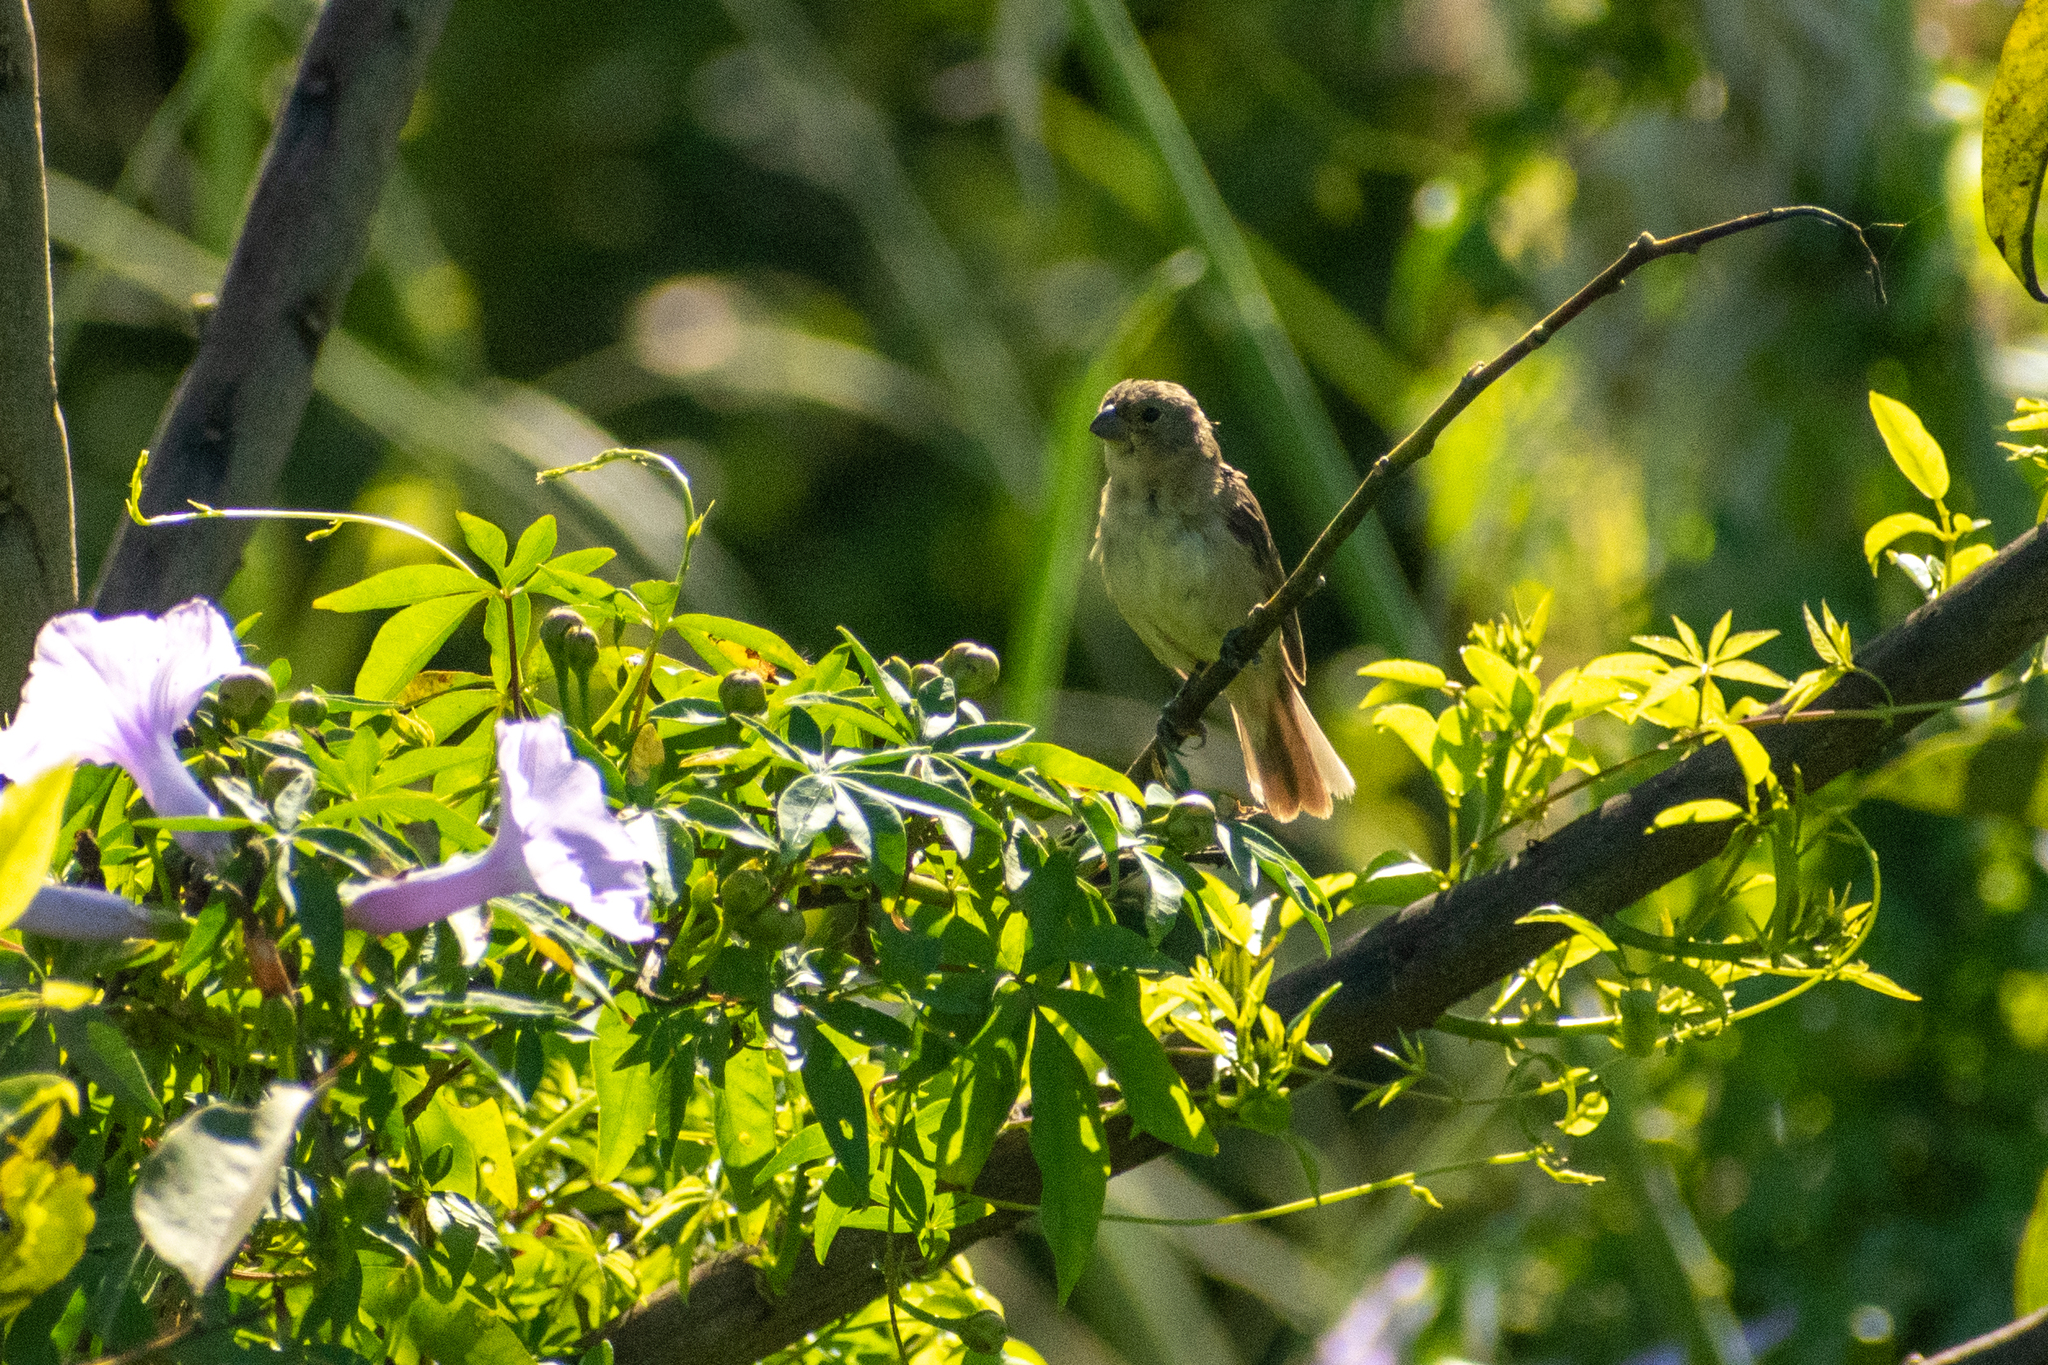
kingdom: Animalia
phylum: Chordata
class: Aves
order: Passeriformes
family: Thraupidae
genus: Sporophila
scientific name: Sporophila caerulescens
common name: Double-collared seedeater
